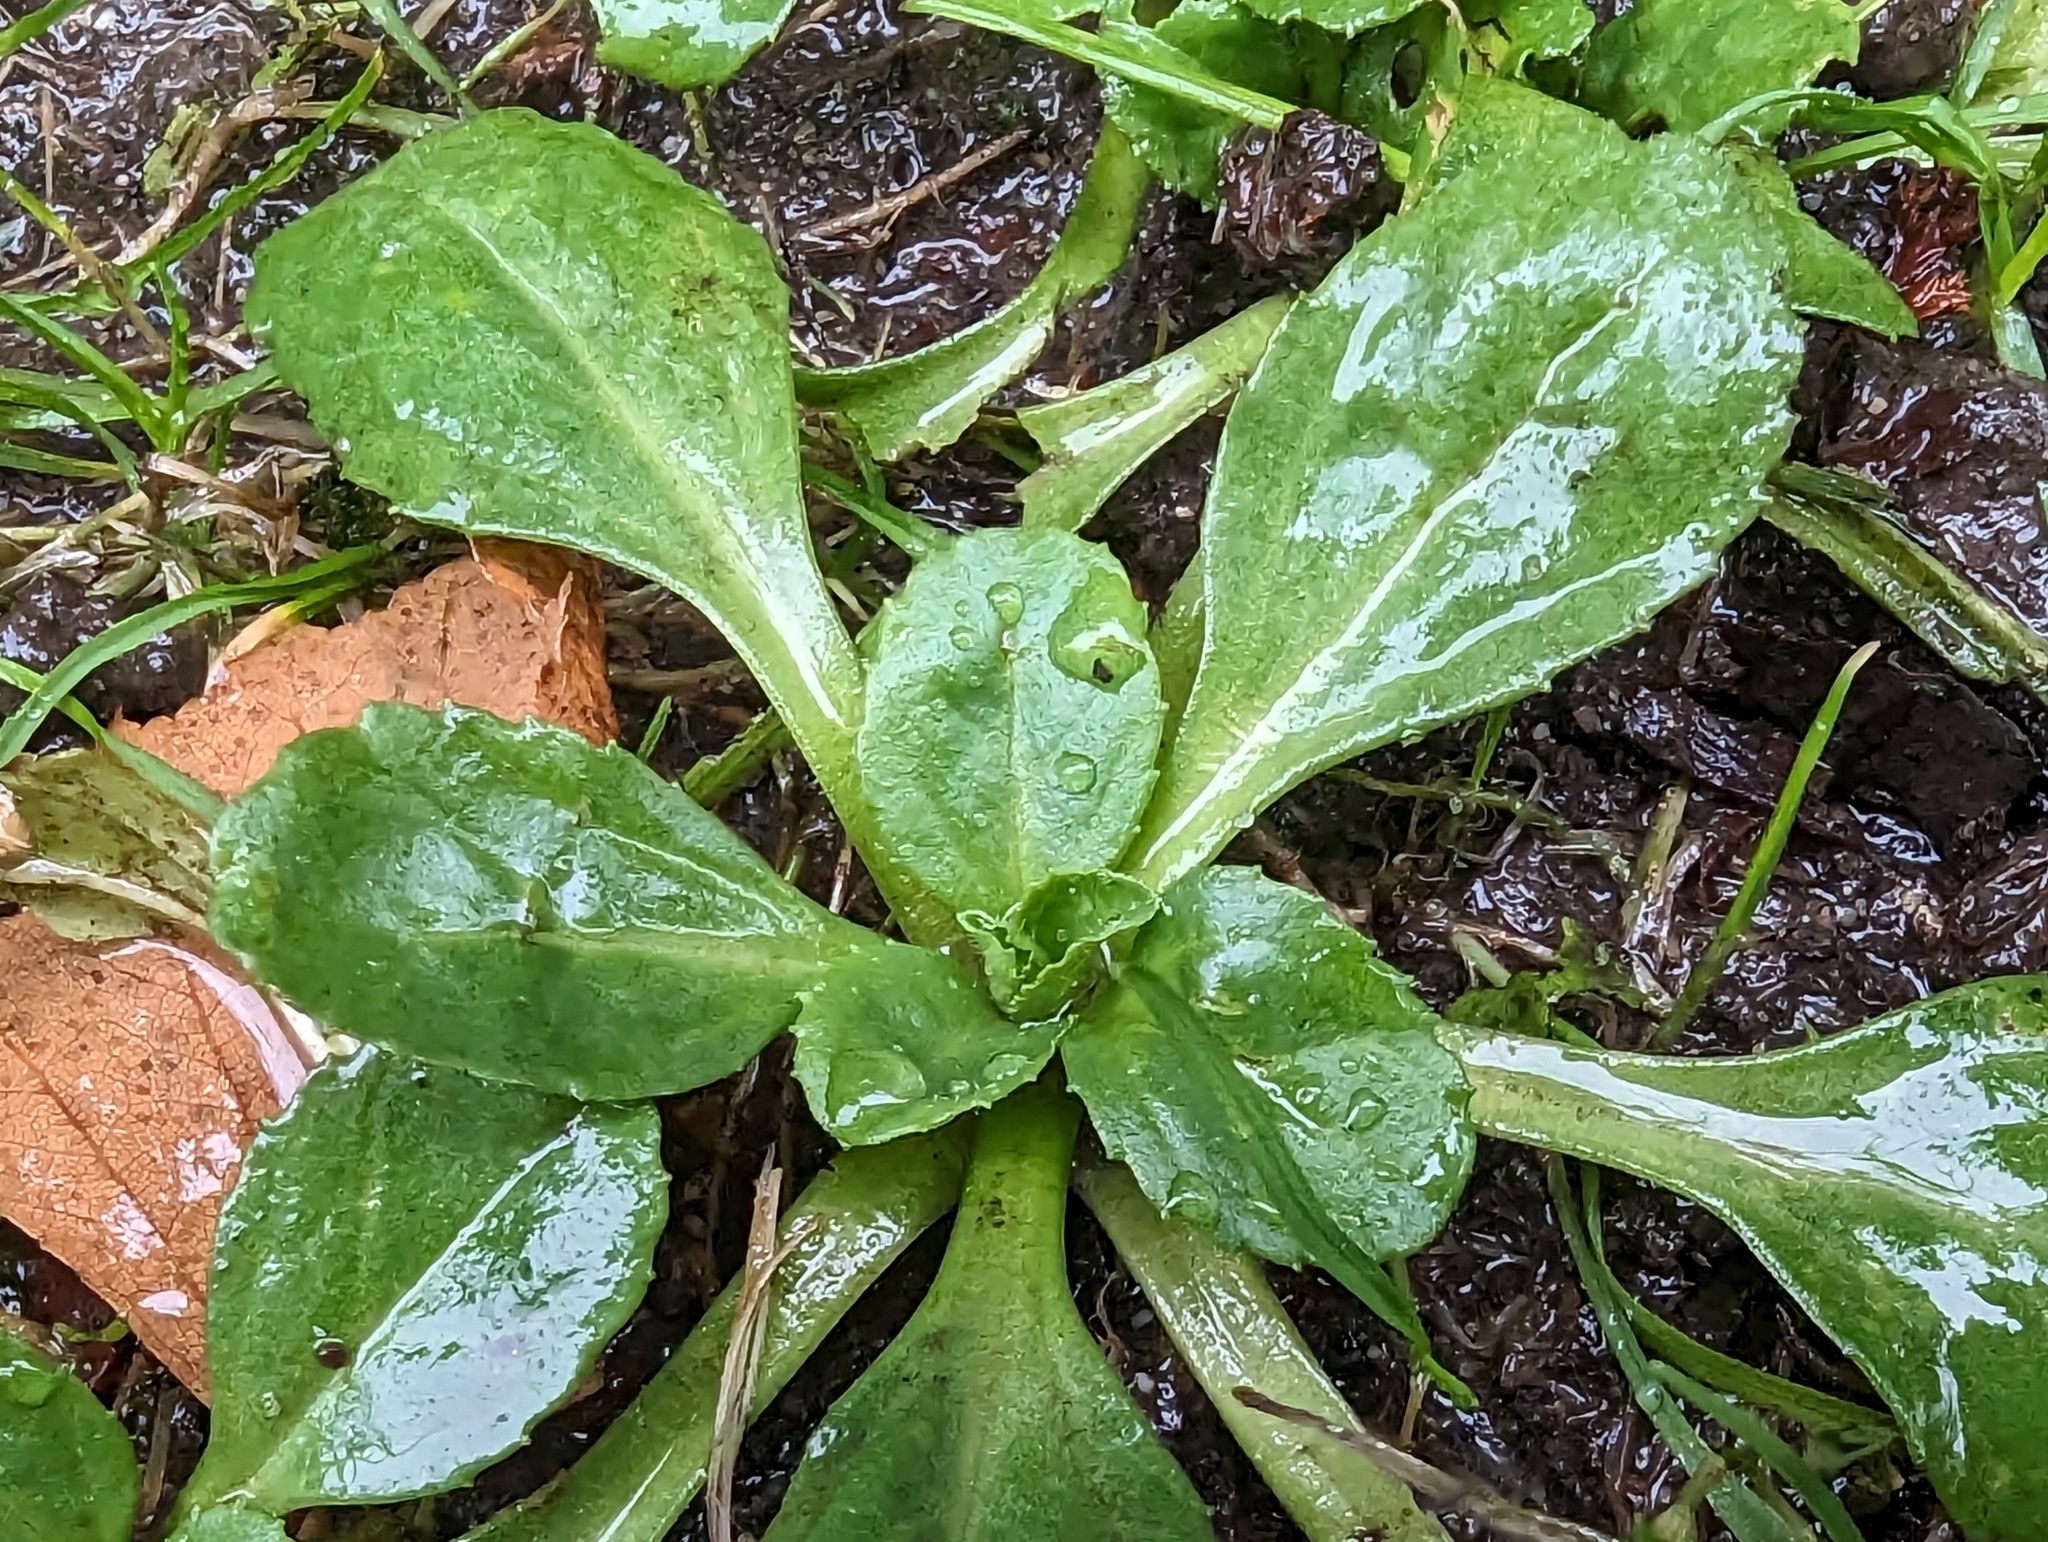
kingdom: Plantae
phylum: Tracheophyta
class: Magnoliopsida
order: Asterales
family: Asteraceae
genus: Bellis
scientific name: Bellis perennis
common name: Lawndaisy
